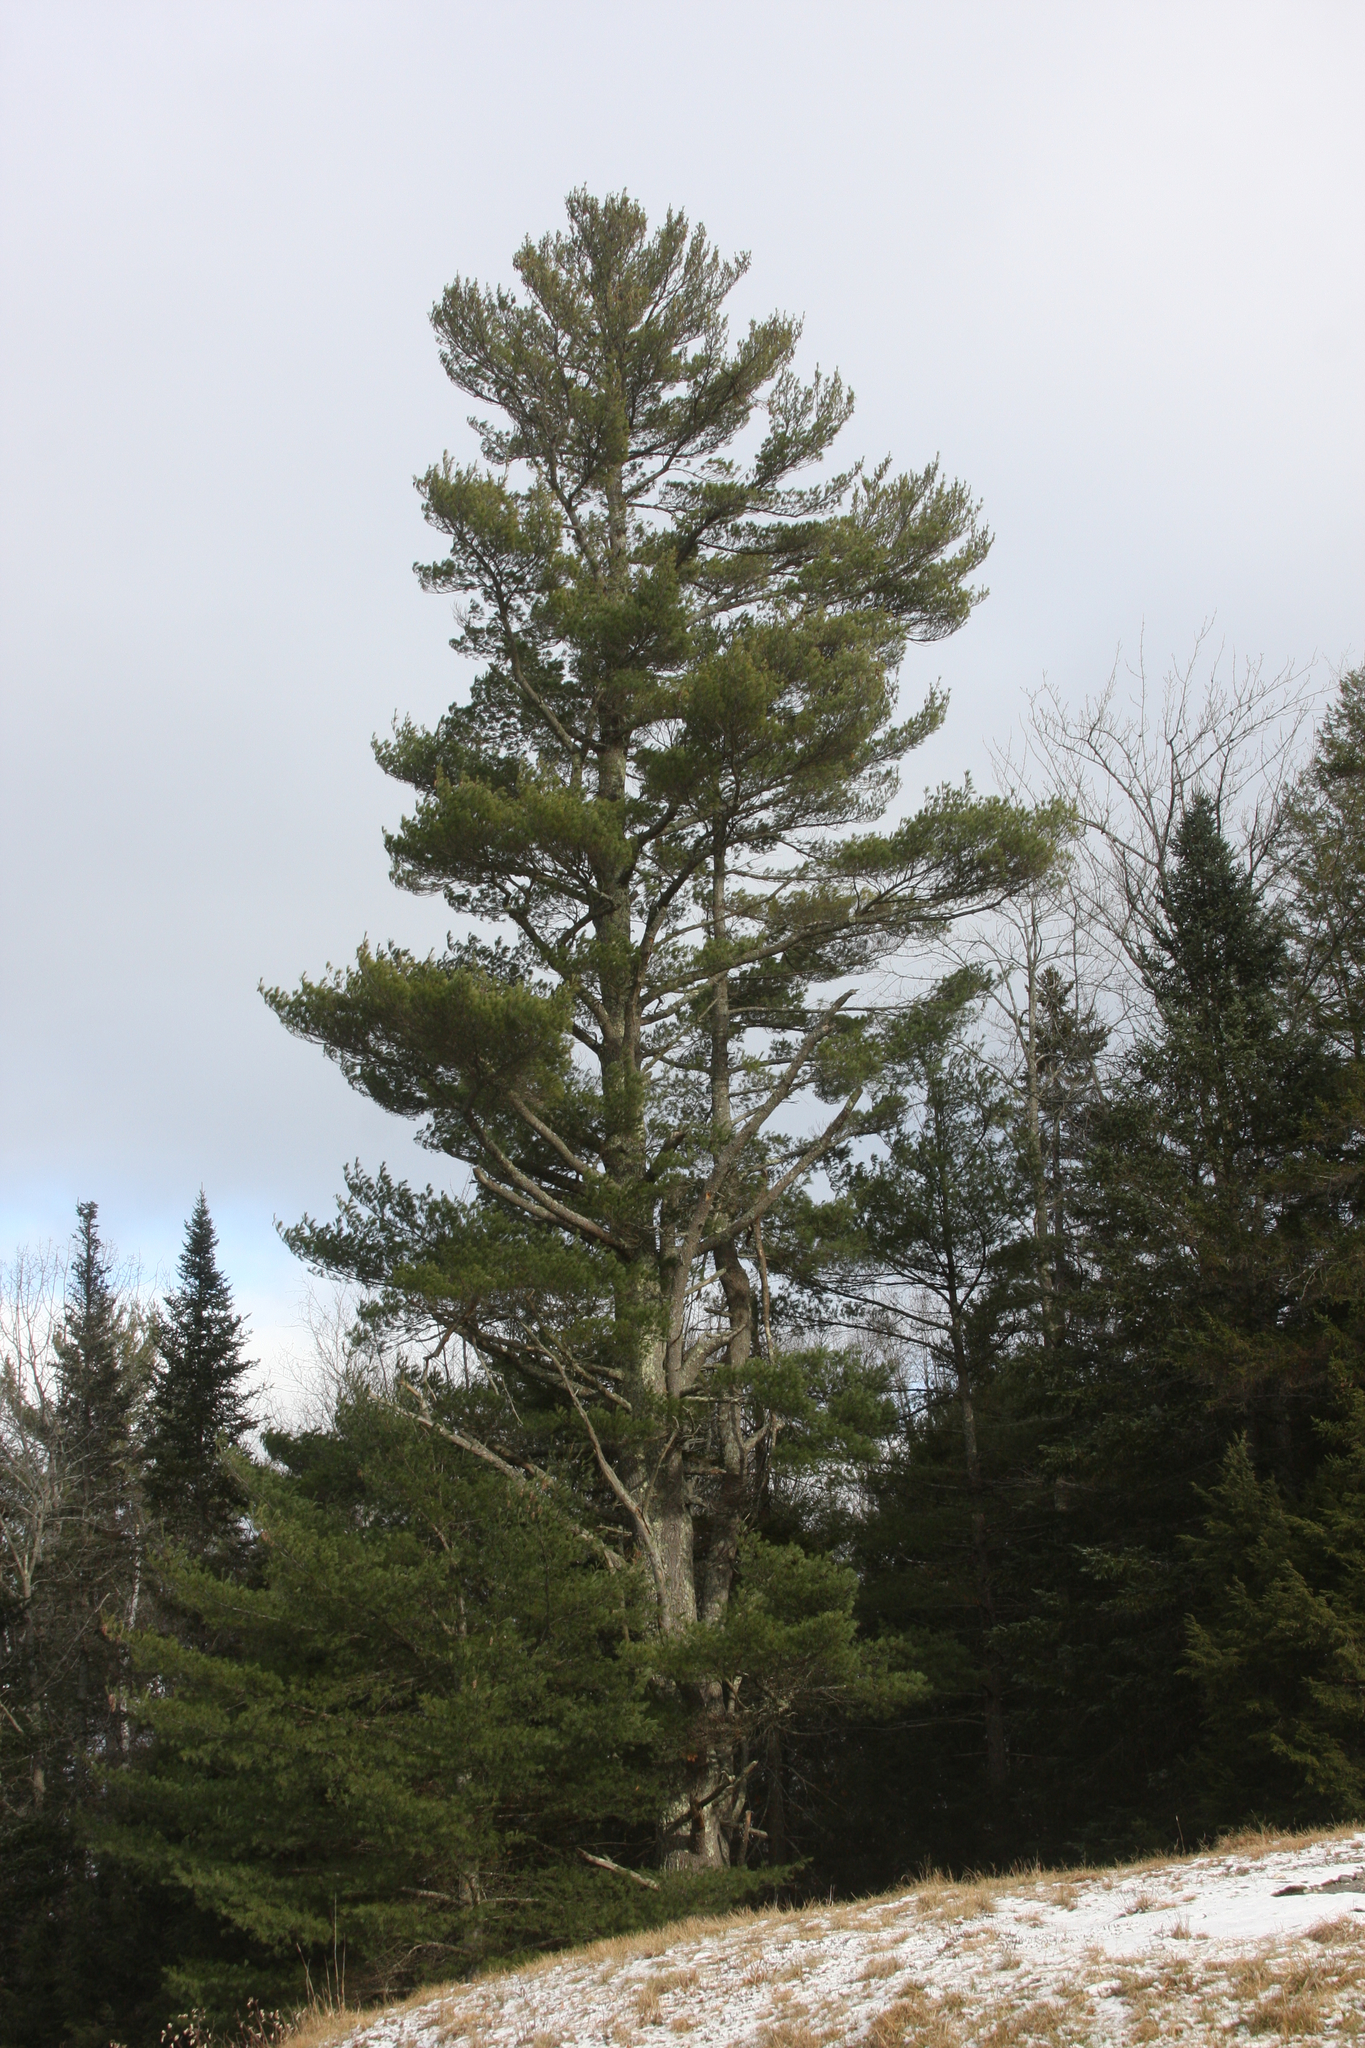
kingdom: Plantae
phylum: Tracheophyta
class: Pinopsida
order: Pinales
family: Pinaceae
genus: Pinus
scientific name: Pinus strobus
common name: Weymouth pine
